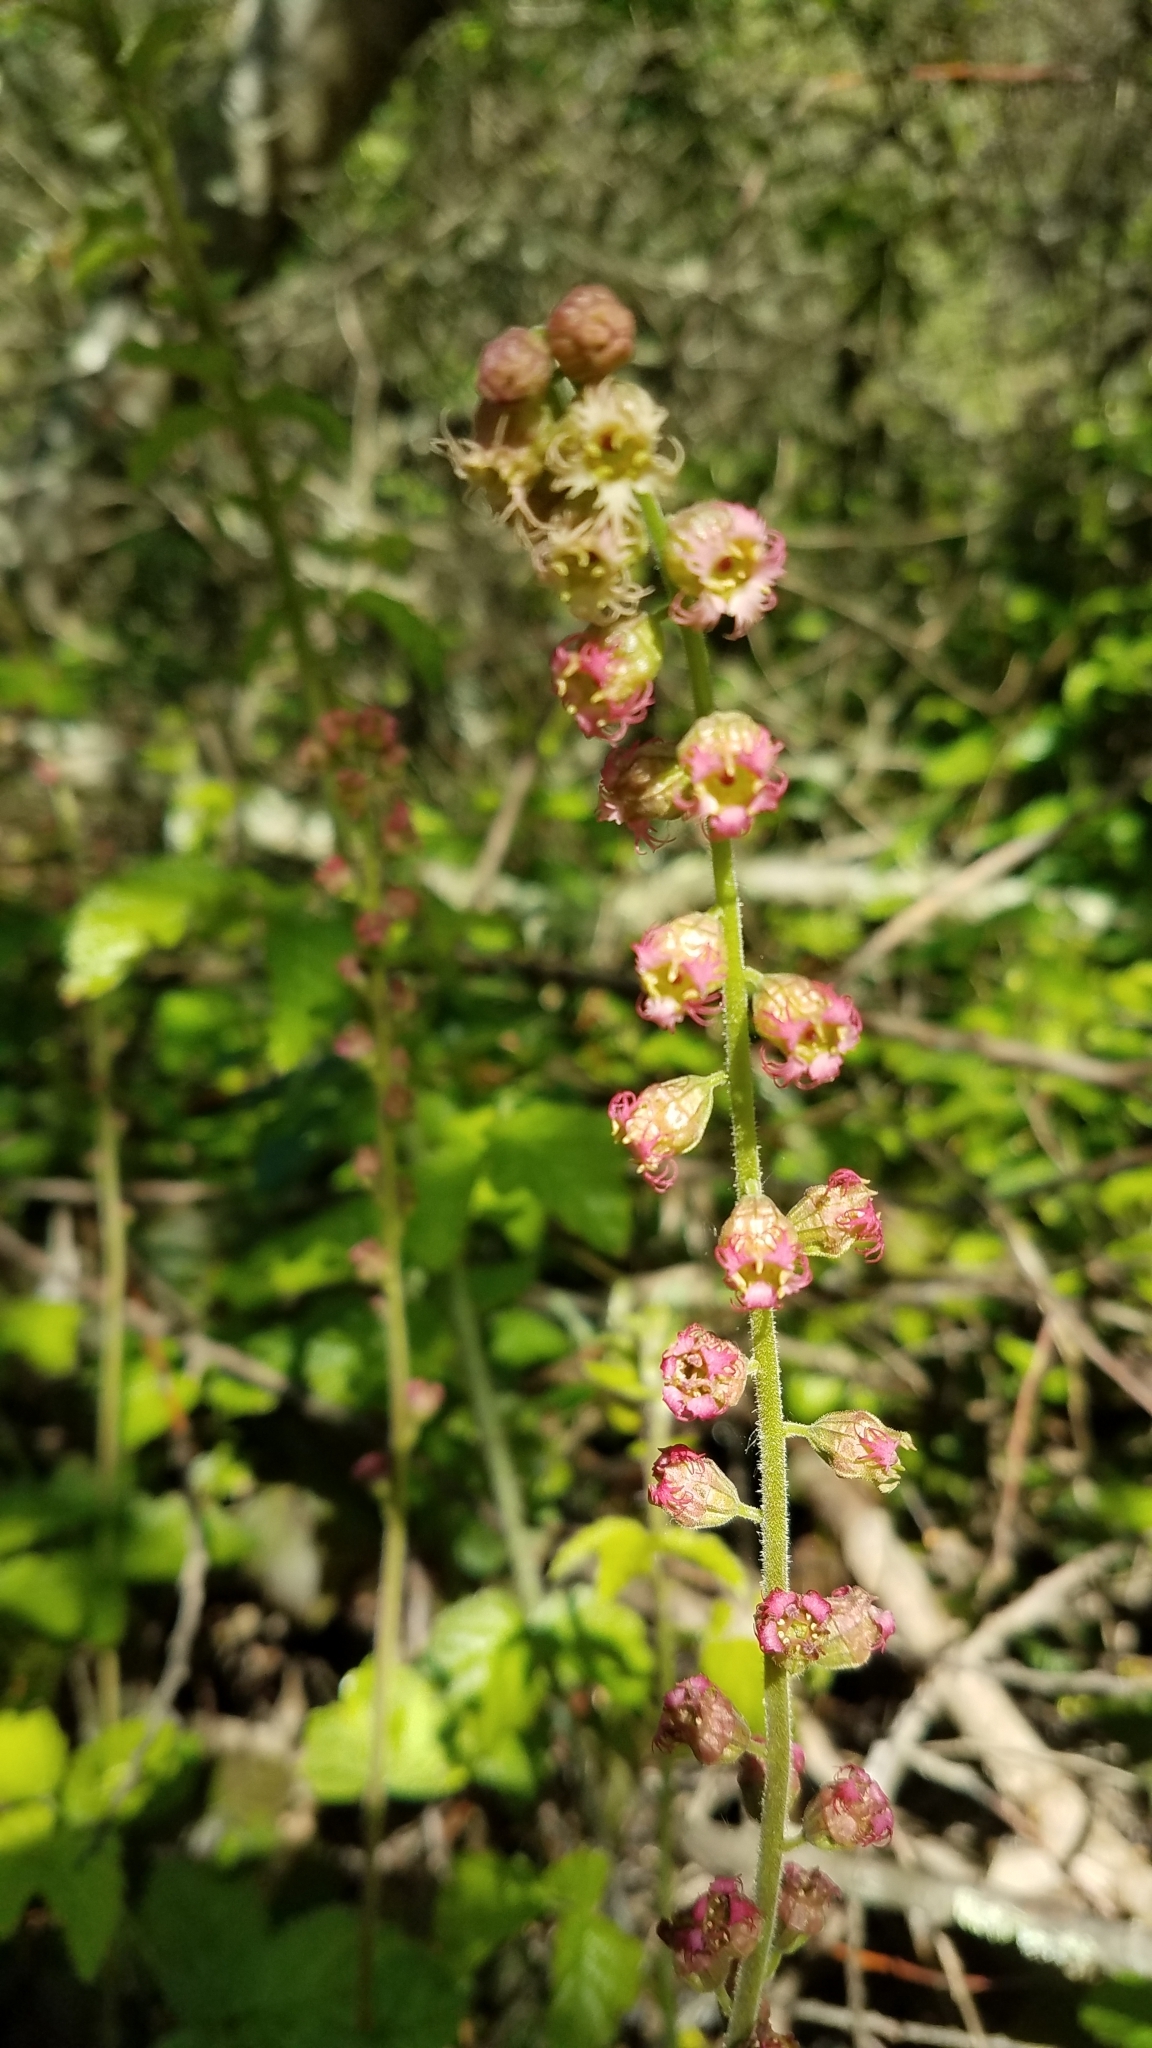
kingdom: Plantae
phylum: Tracheophyta
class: Magnoliopsida
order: Saxifragales
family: Saxifragaceae
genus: Tellima
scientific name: Tellima grandiflora
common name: Fringecups
